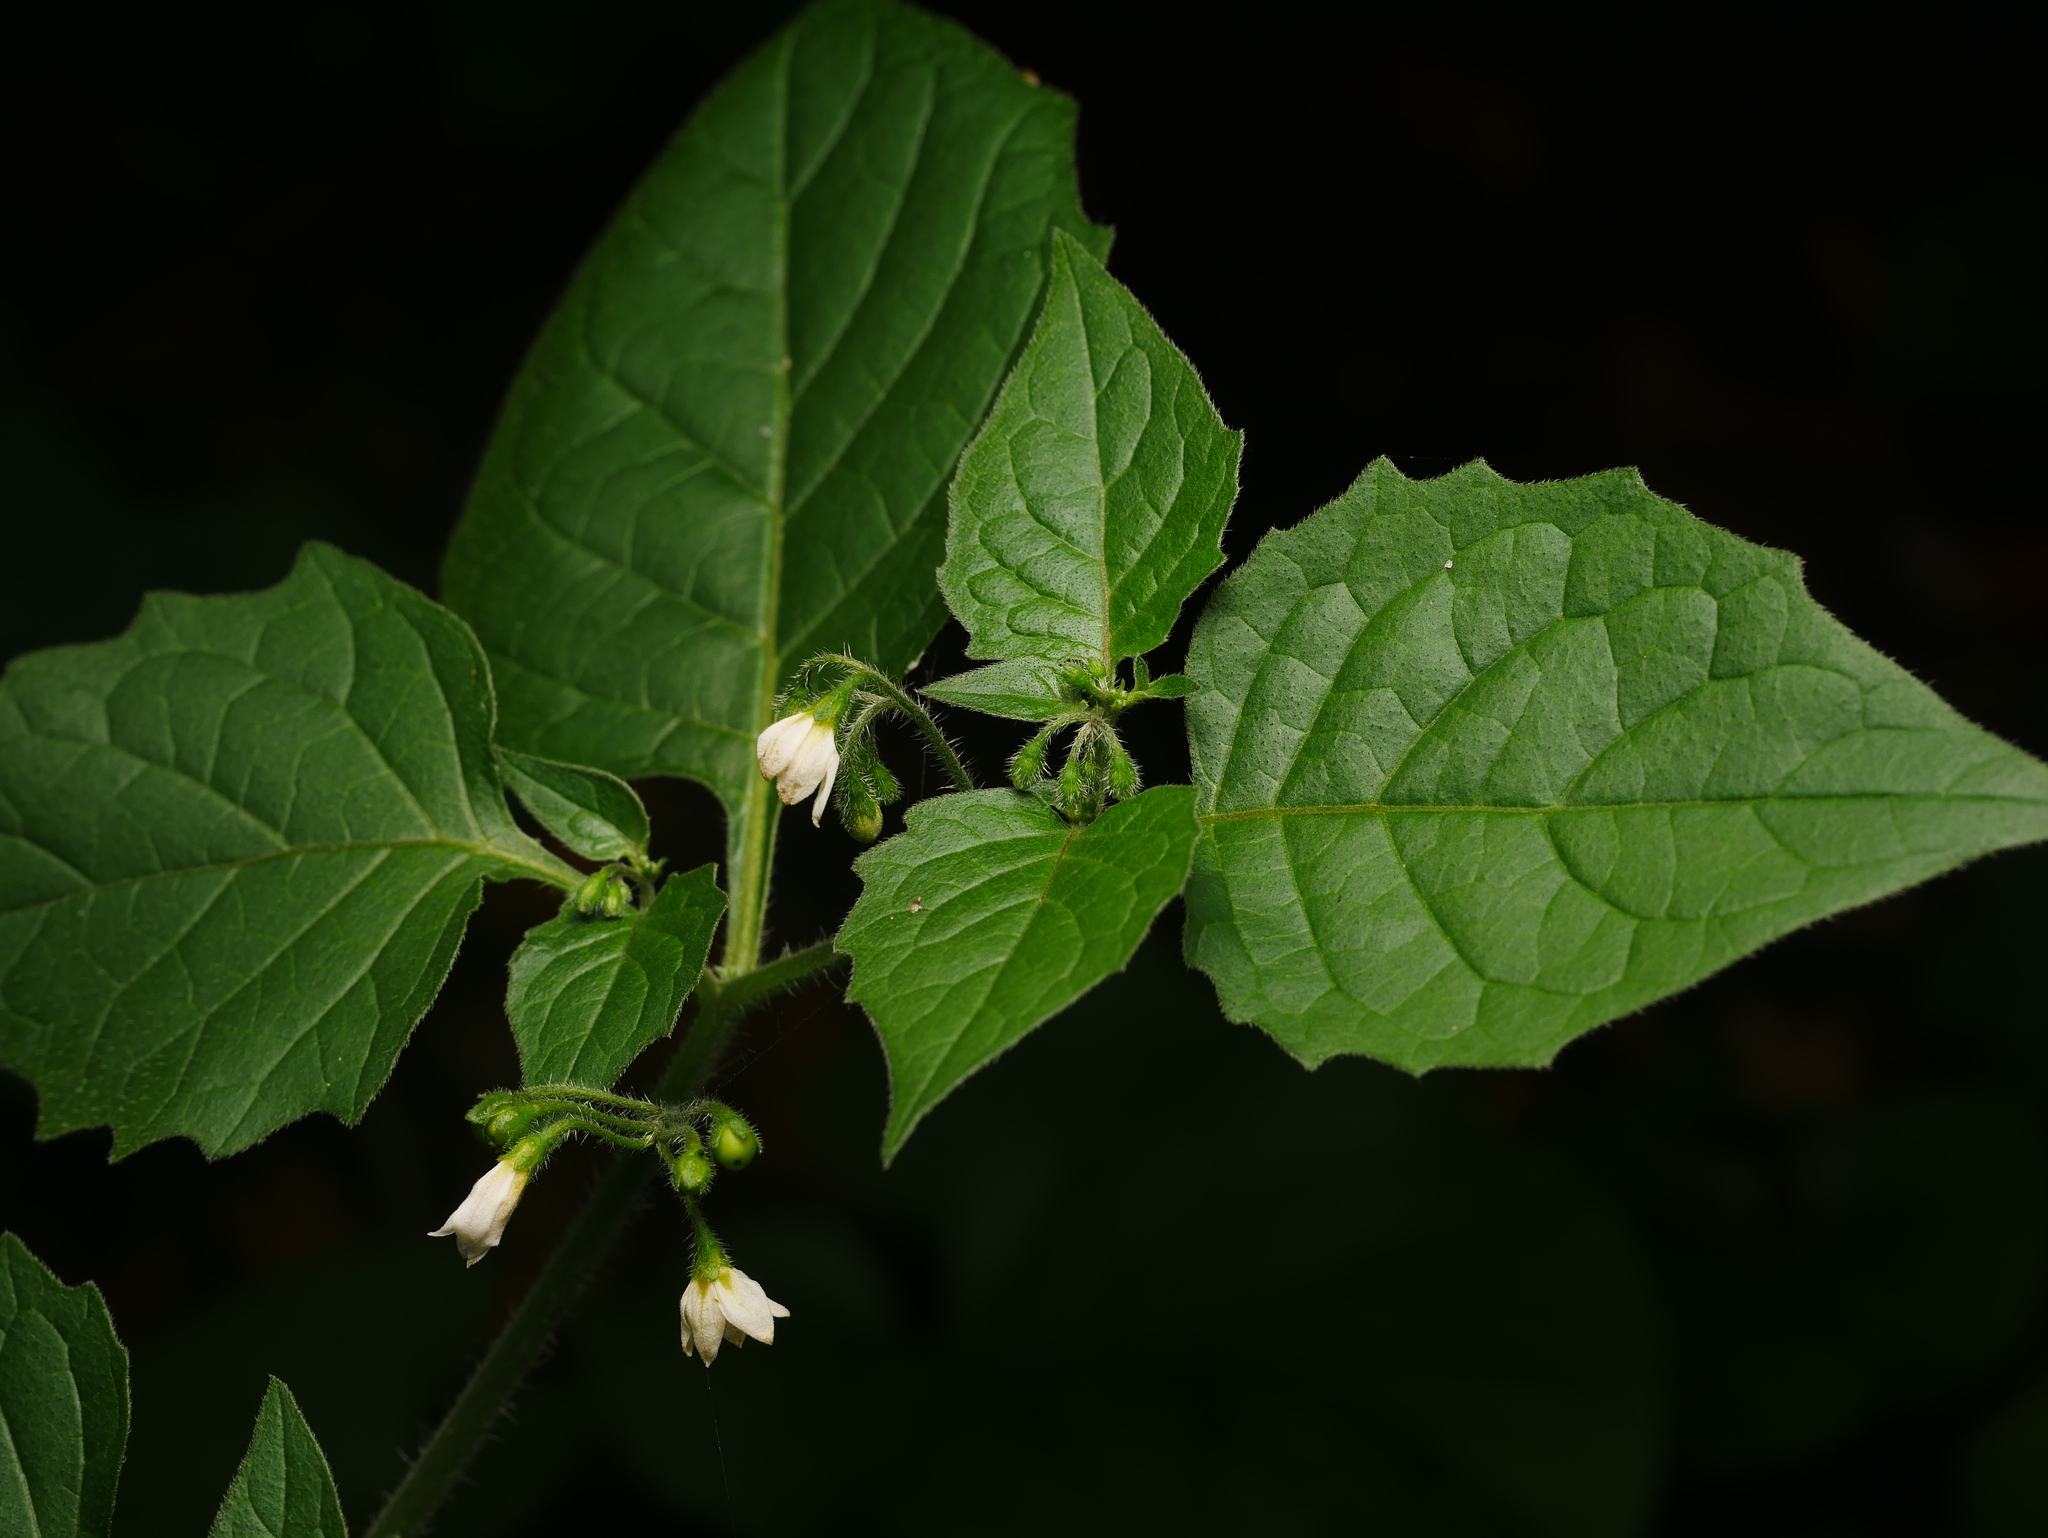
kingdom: Plantae
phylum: Tracheophyta
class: Magnoliopsida
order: Solanales
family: Solanaceae
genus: Solanum
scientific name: Solanum nigrum
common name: Black nightshade
